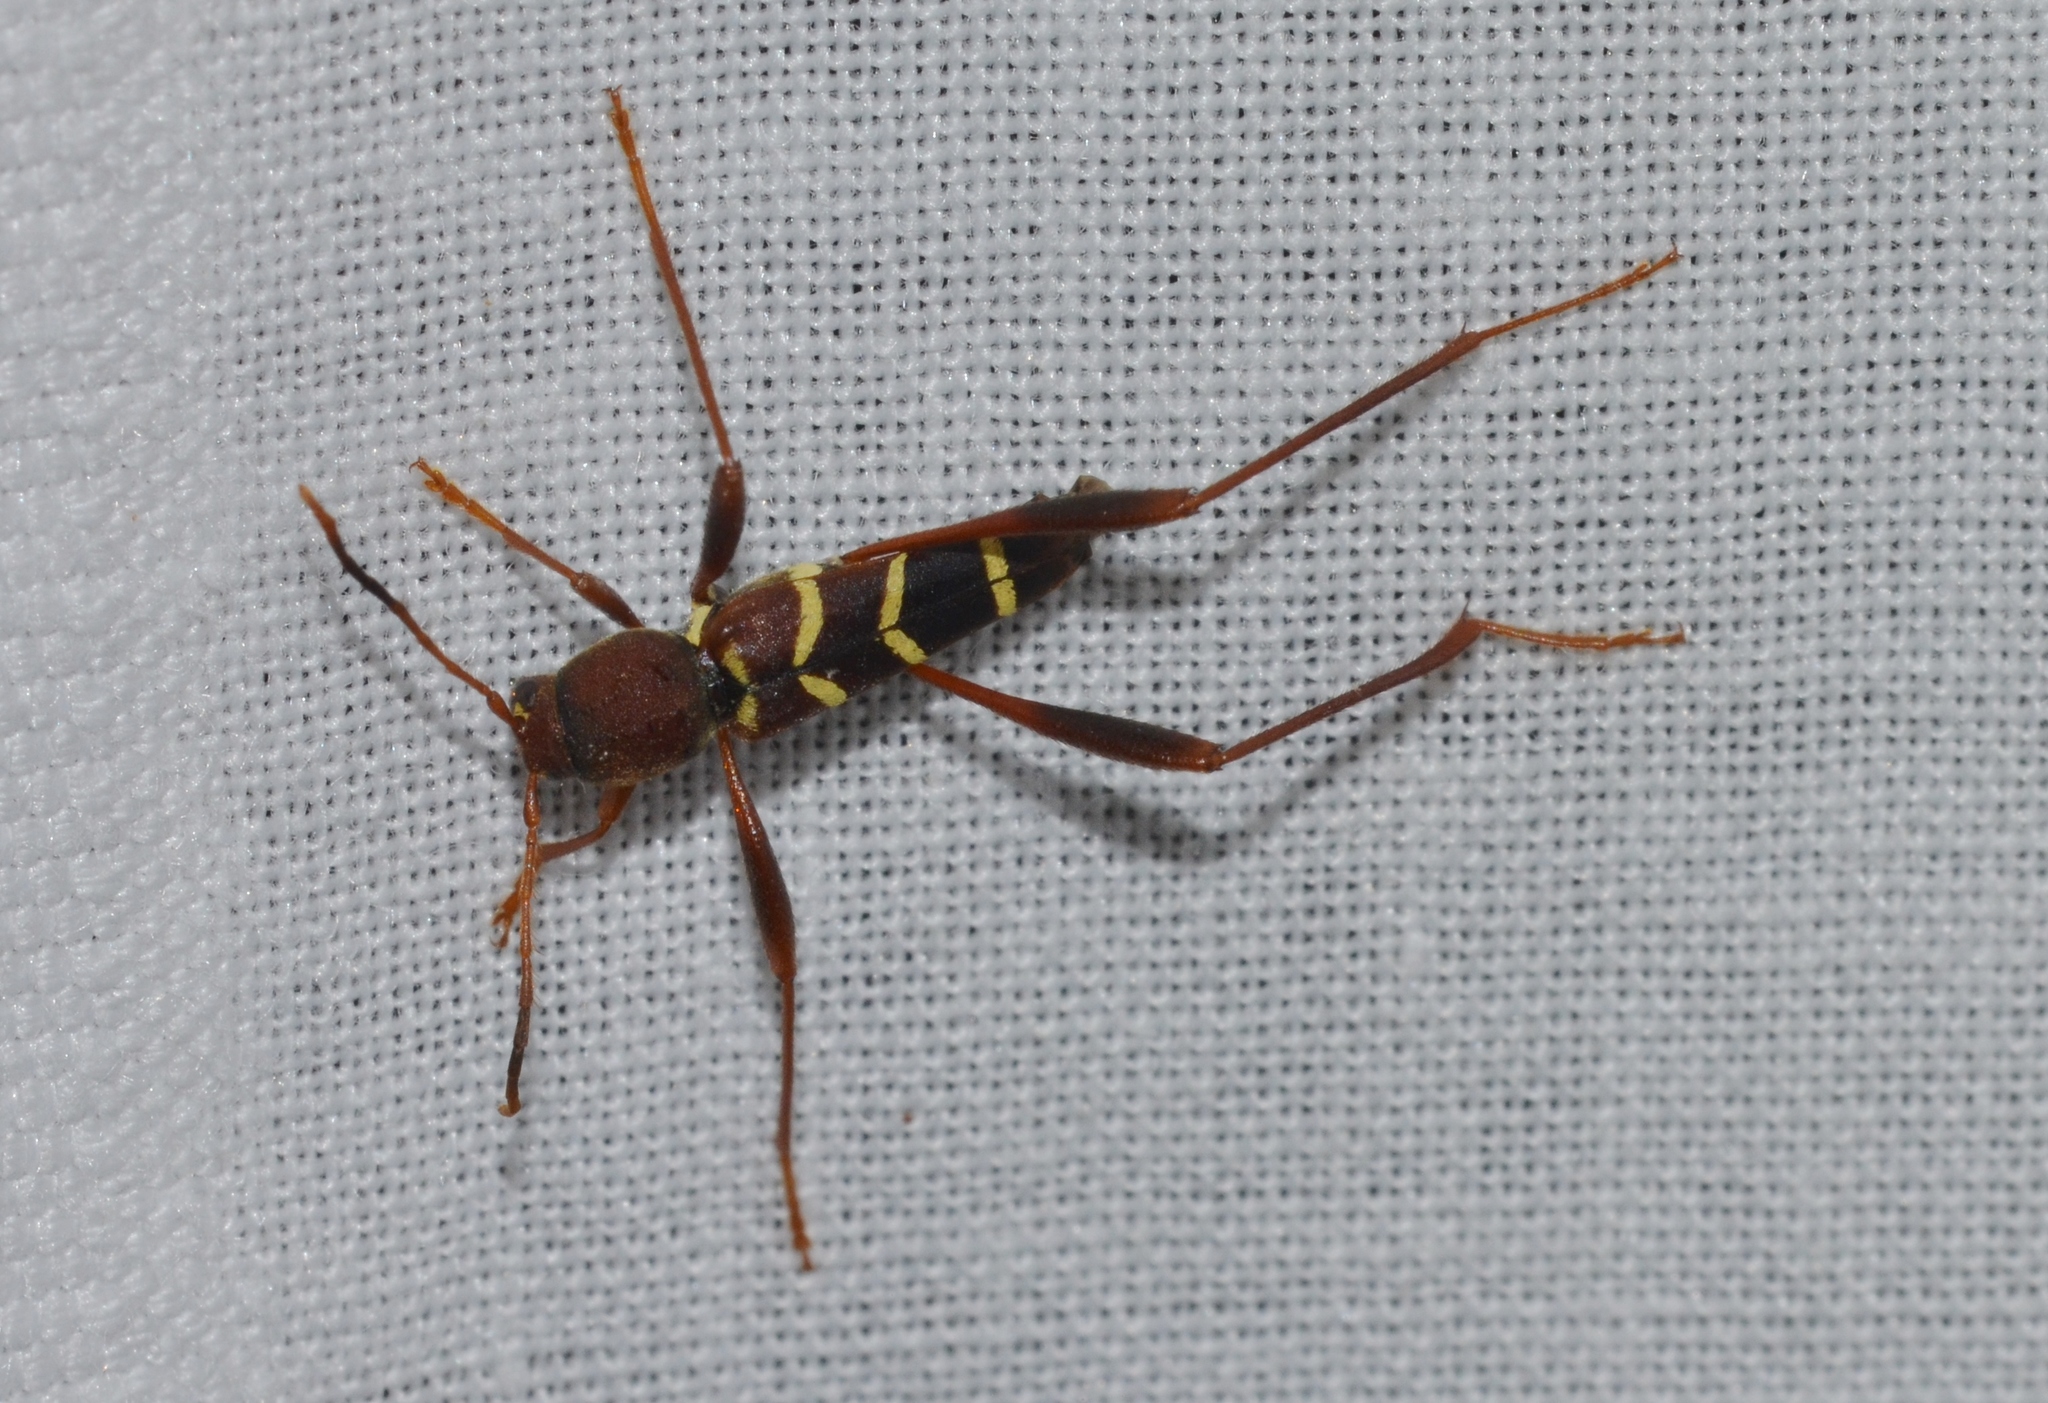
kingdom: Animalia
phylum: Arthropoda
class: Insecta
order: Coleoptera
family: Cerambycidae
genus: Neoclytus
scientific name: Neoclytus acuminatus
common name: Read-headed ash borer
